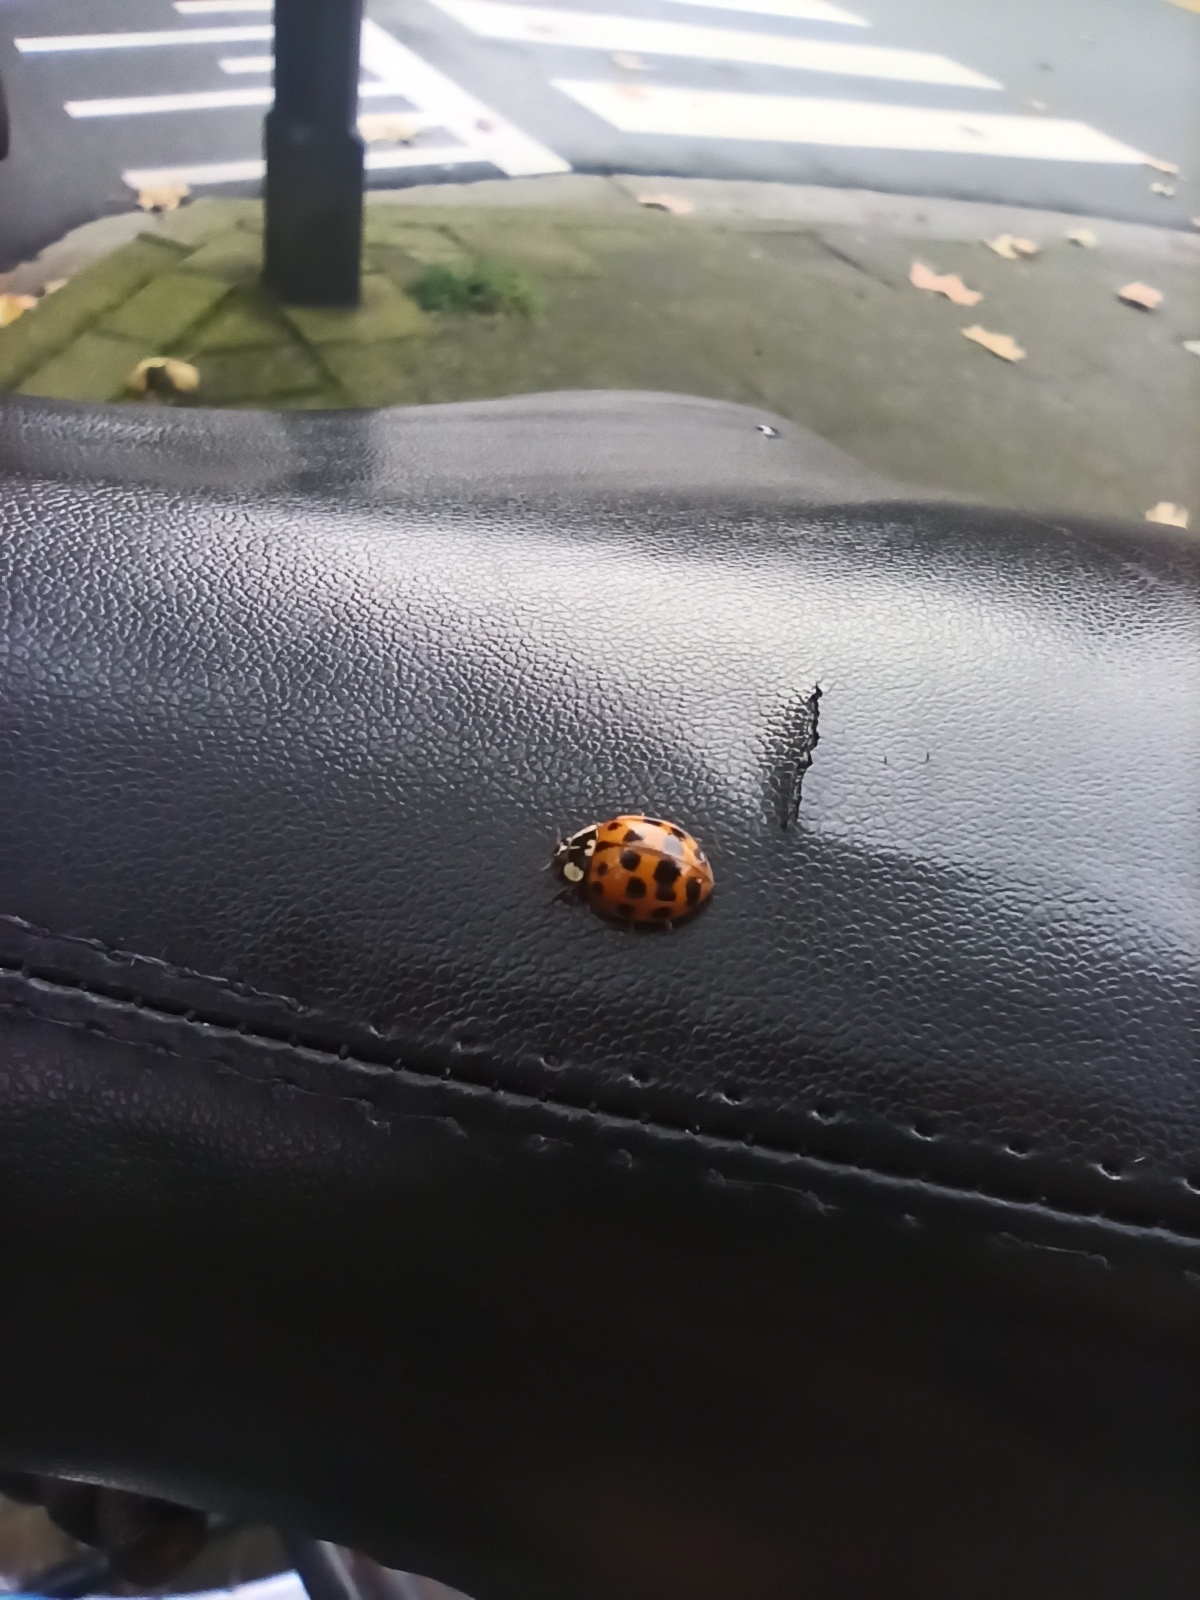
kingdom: Animalia
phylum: Arthropoda
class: Insecta
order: Coleoptera
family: Coccinellidae
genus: Harmonia
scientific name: Harmonia axyridis
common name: Harlequin ladybird
